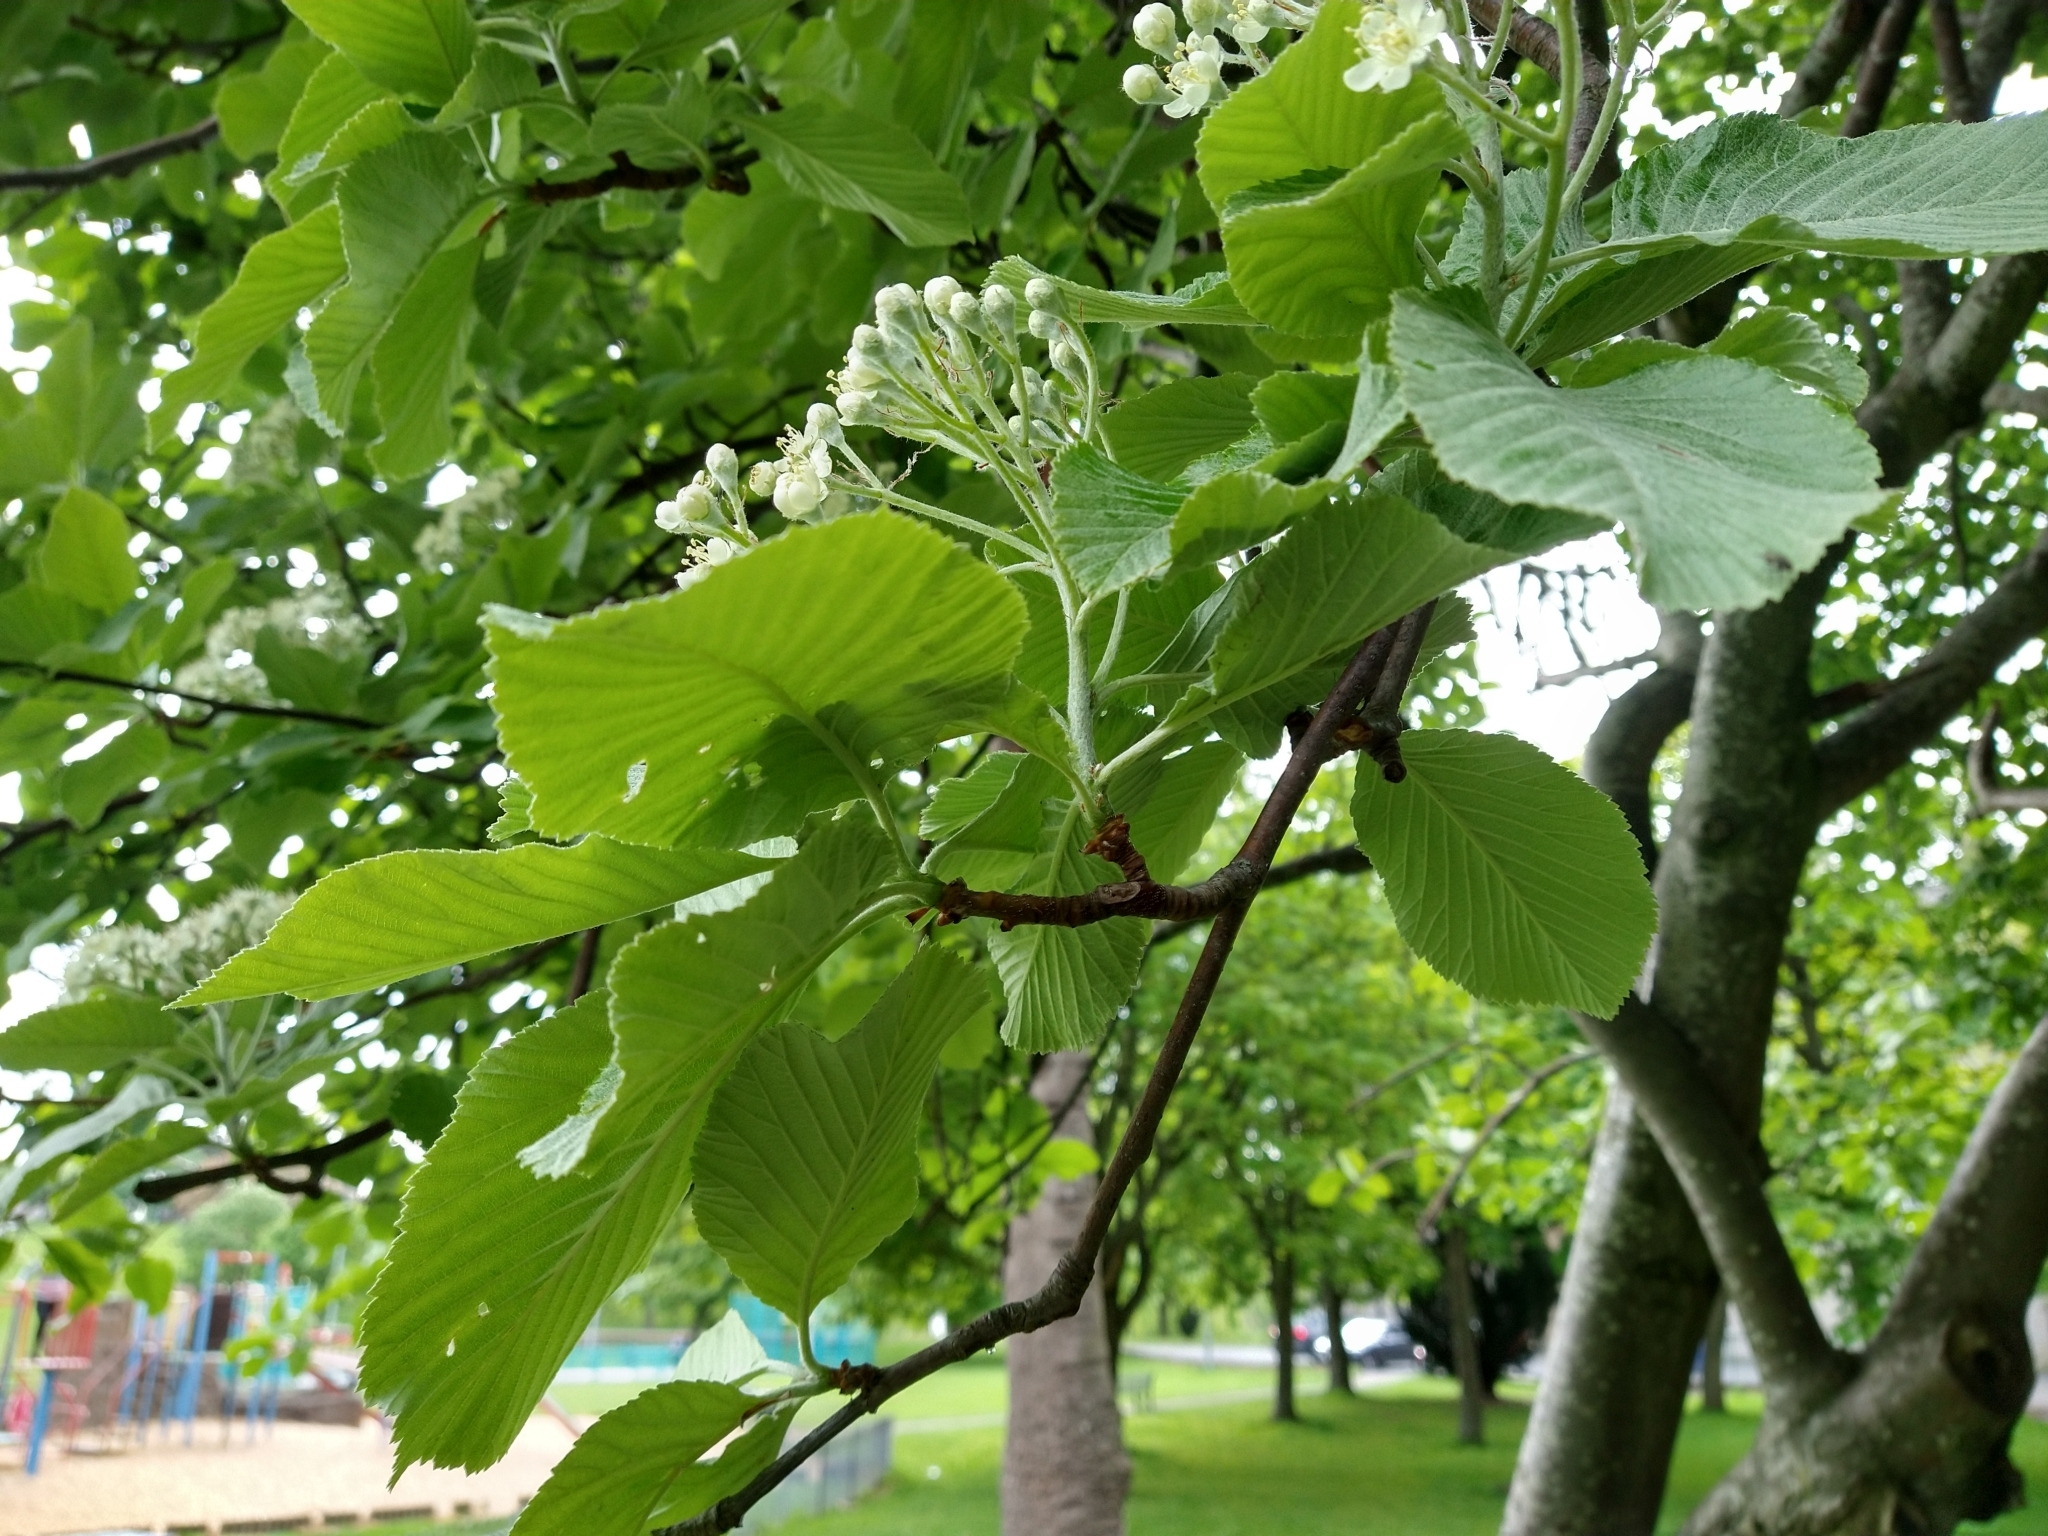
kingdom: Plantae
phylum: Tracheophyta
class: Magnoliopsida
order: Rosales
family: Rosaceae
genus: Aria
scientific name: Aria edulis
